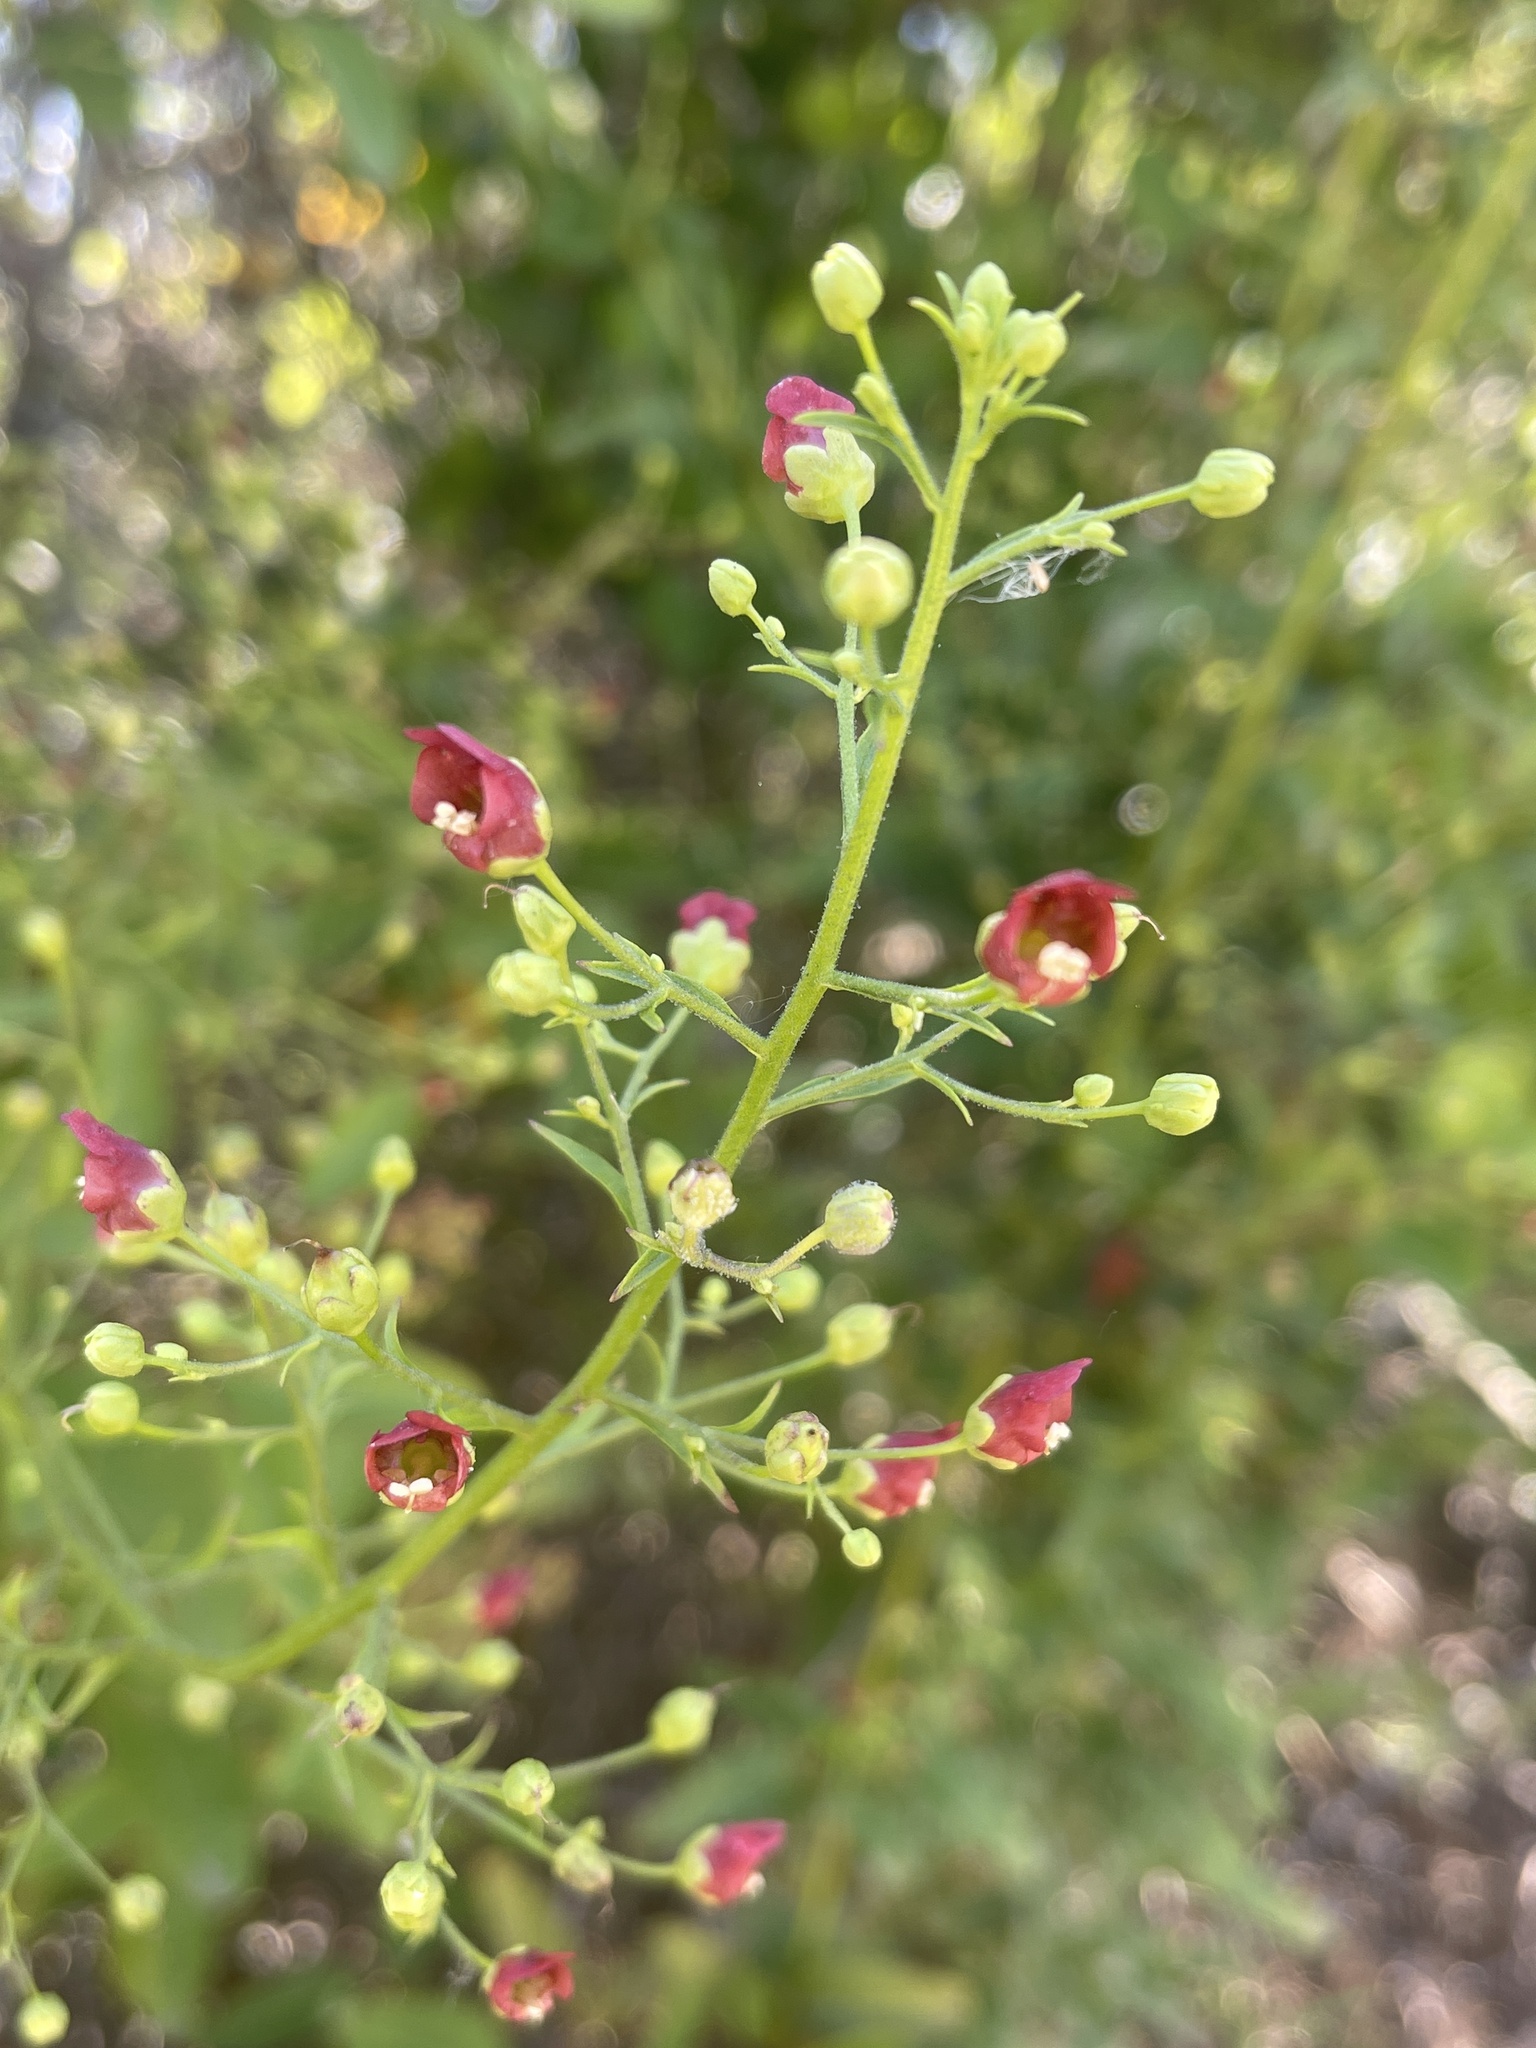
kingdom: Plantae
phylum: Tracheophyta
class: Magnoliopsida
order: Lamiales
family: Scrophulariaceae
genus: Scrophularia
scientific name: Scrophularia californica
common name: California figwort
